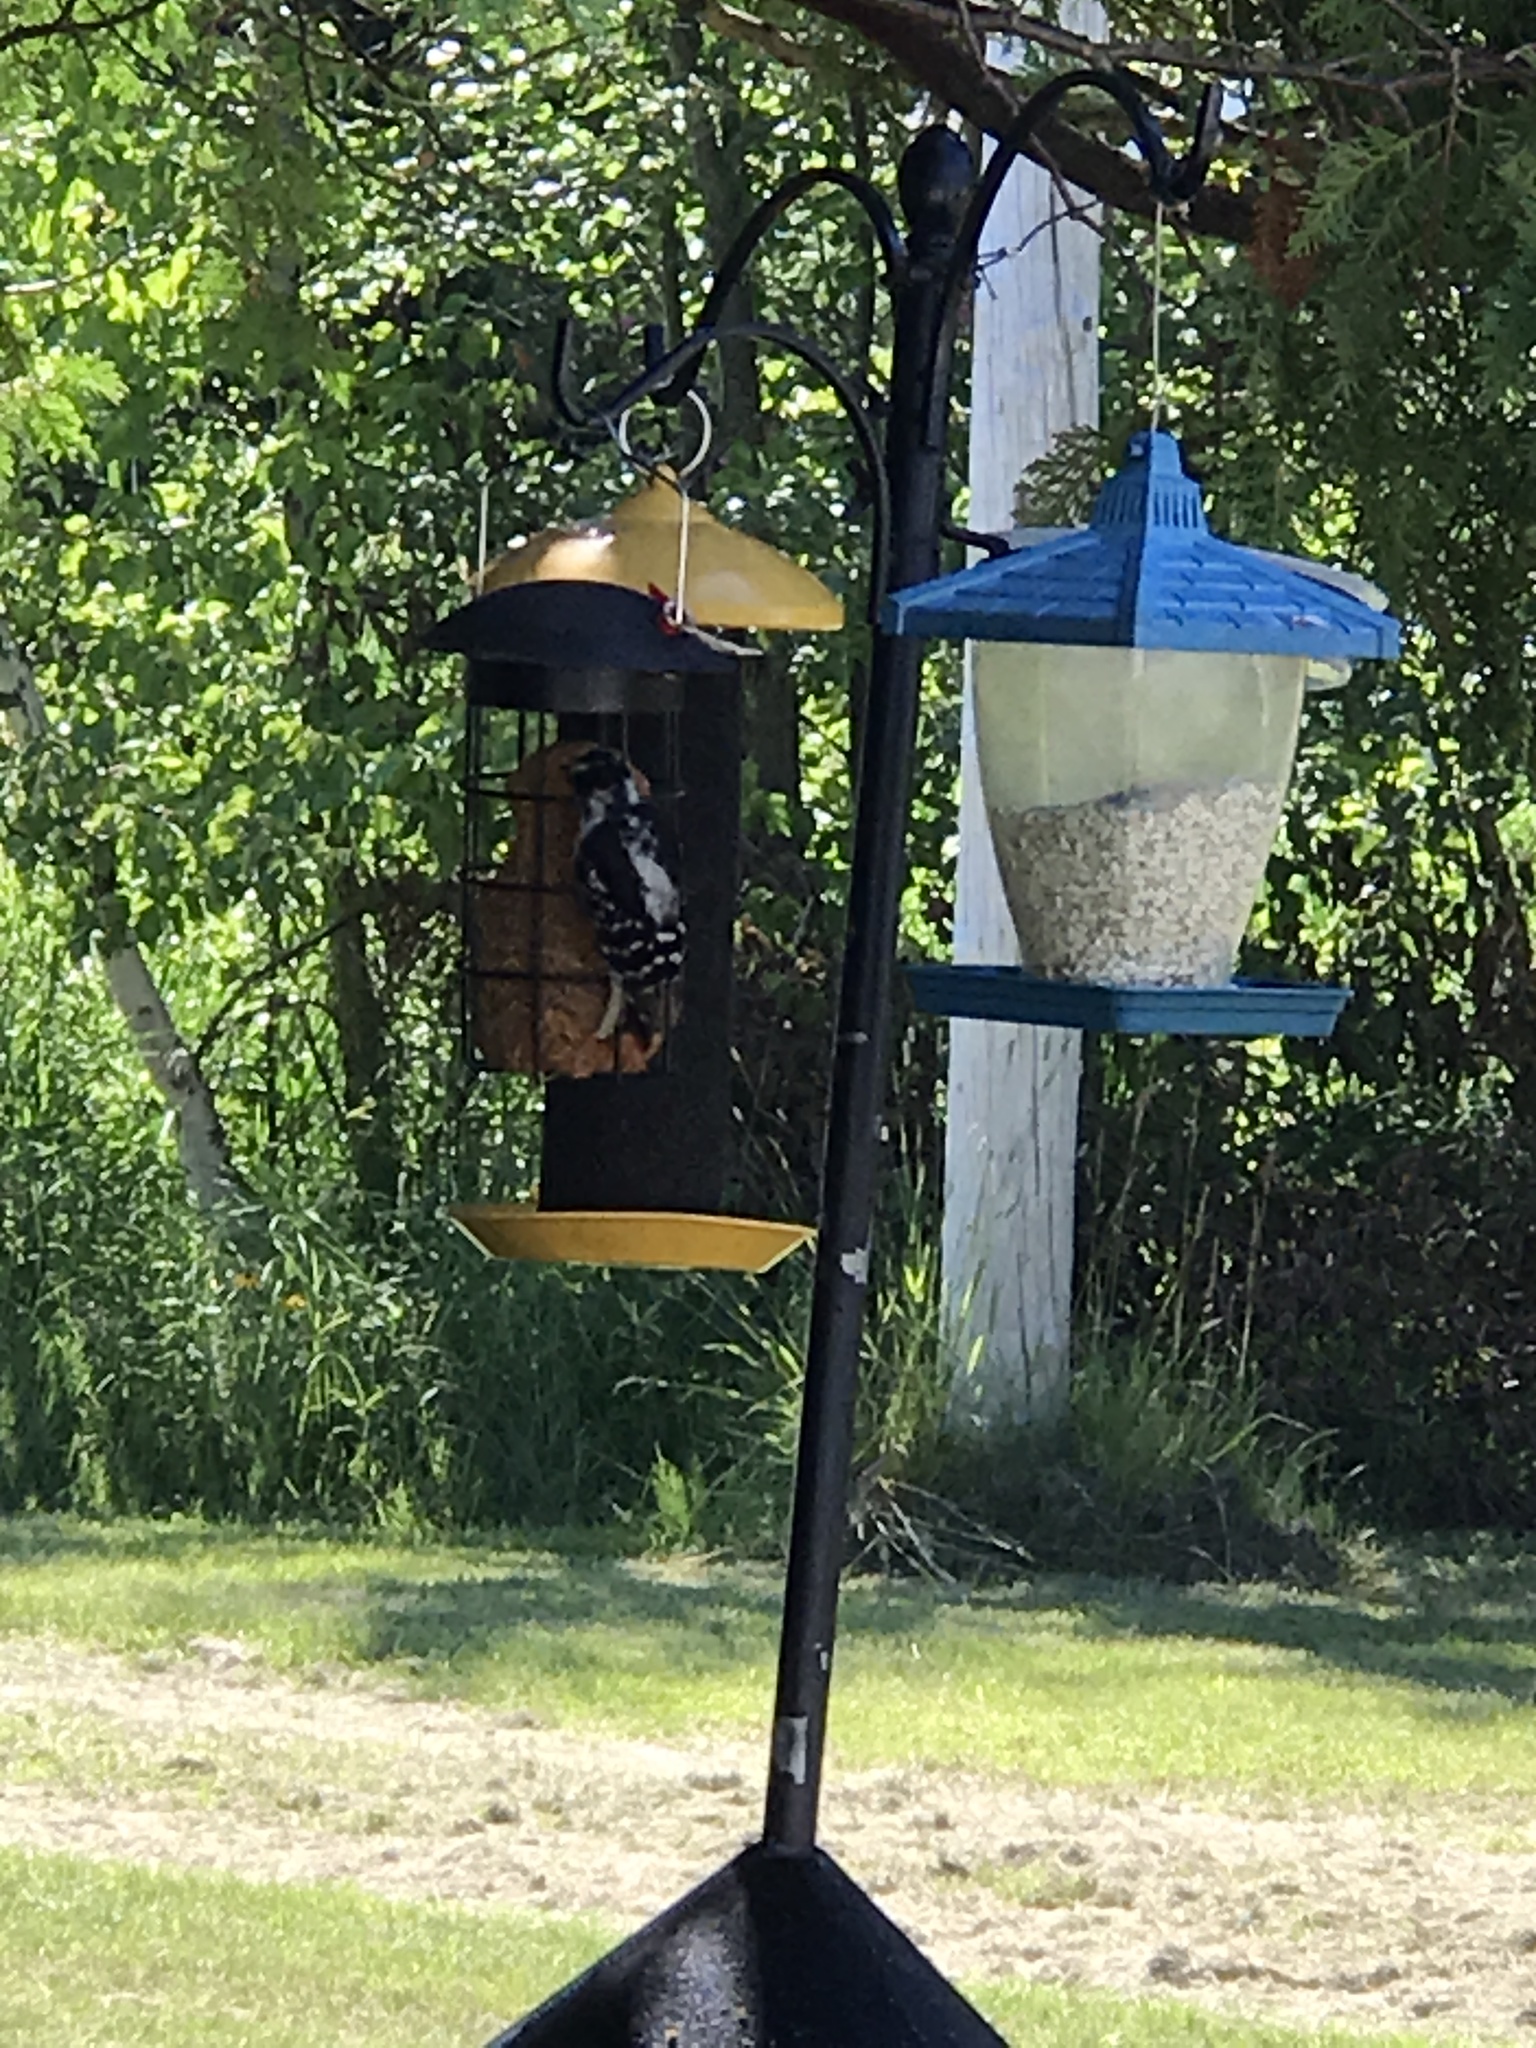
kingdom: Animalia
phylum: Chordata
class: Aves
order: Piciformes
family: Picidae
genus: Dryobates
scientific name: Dryobates pubescens
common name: Downy woodpecker
